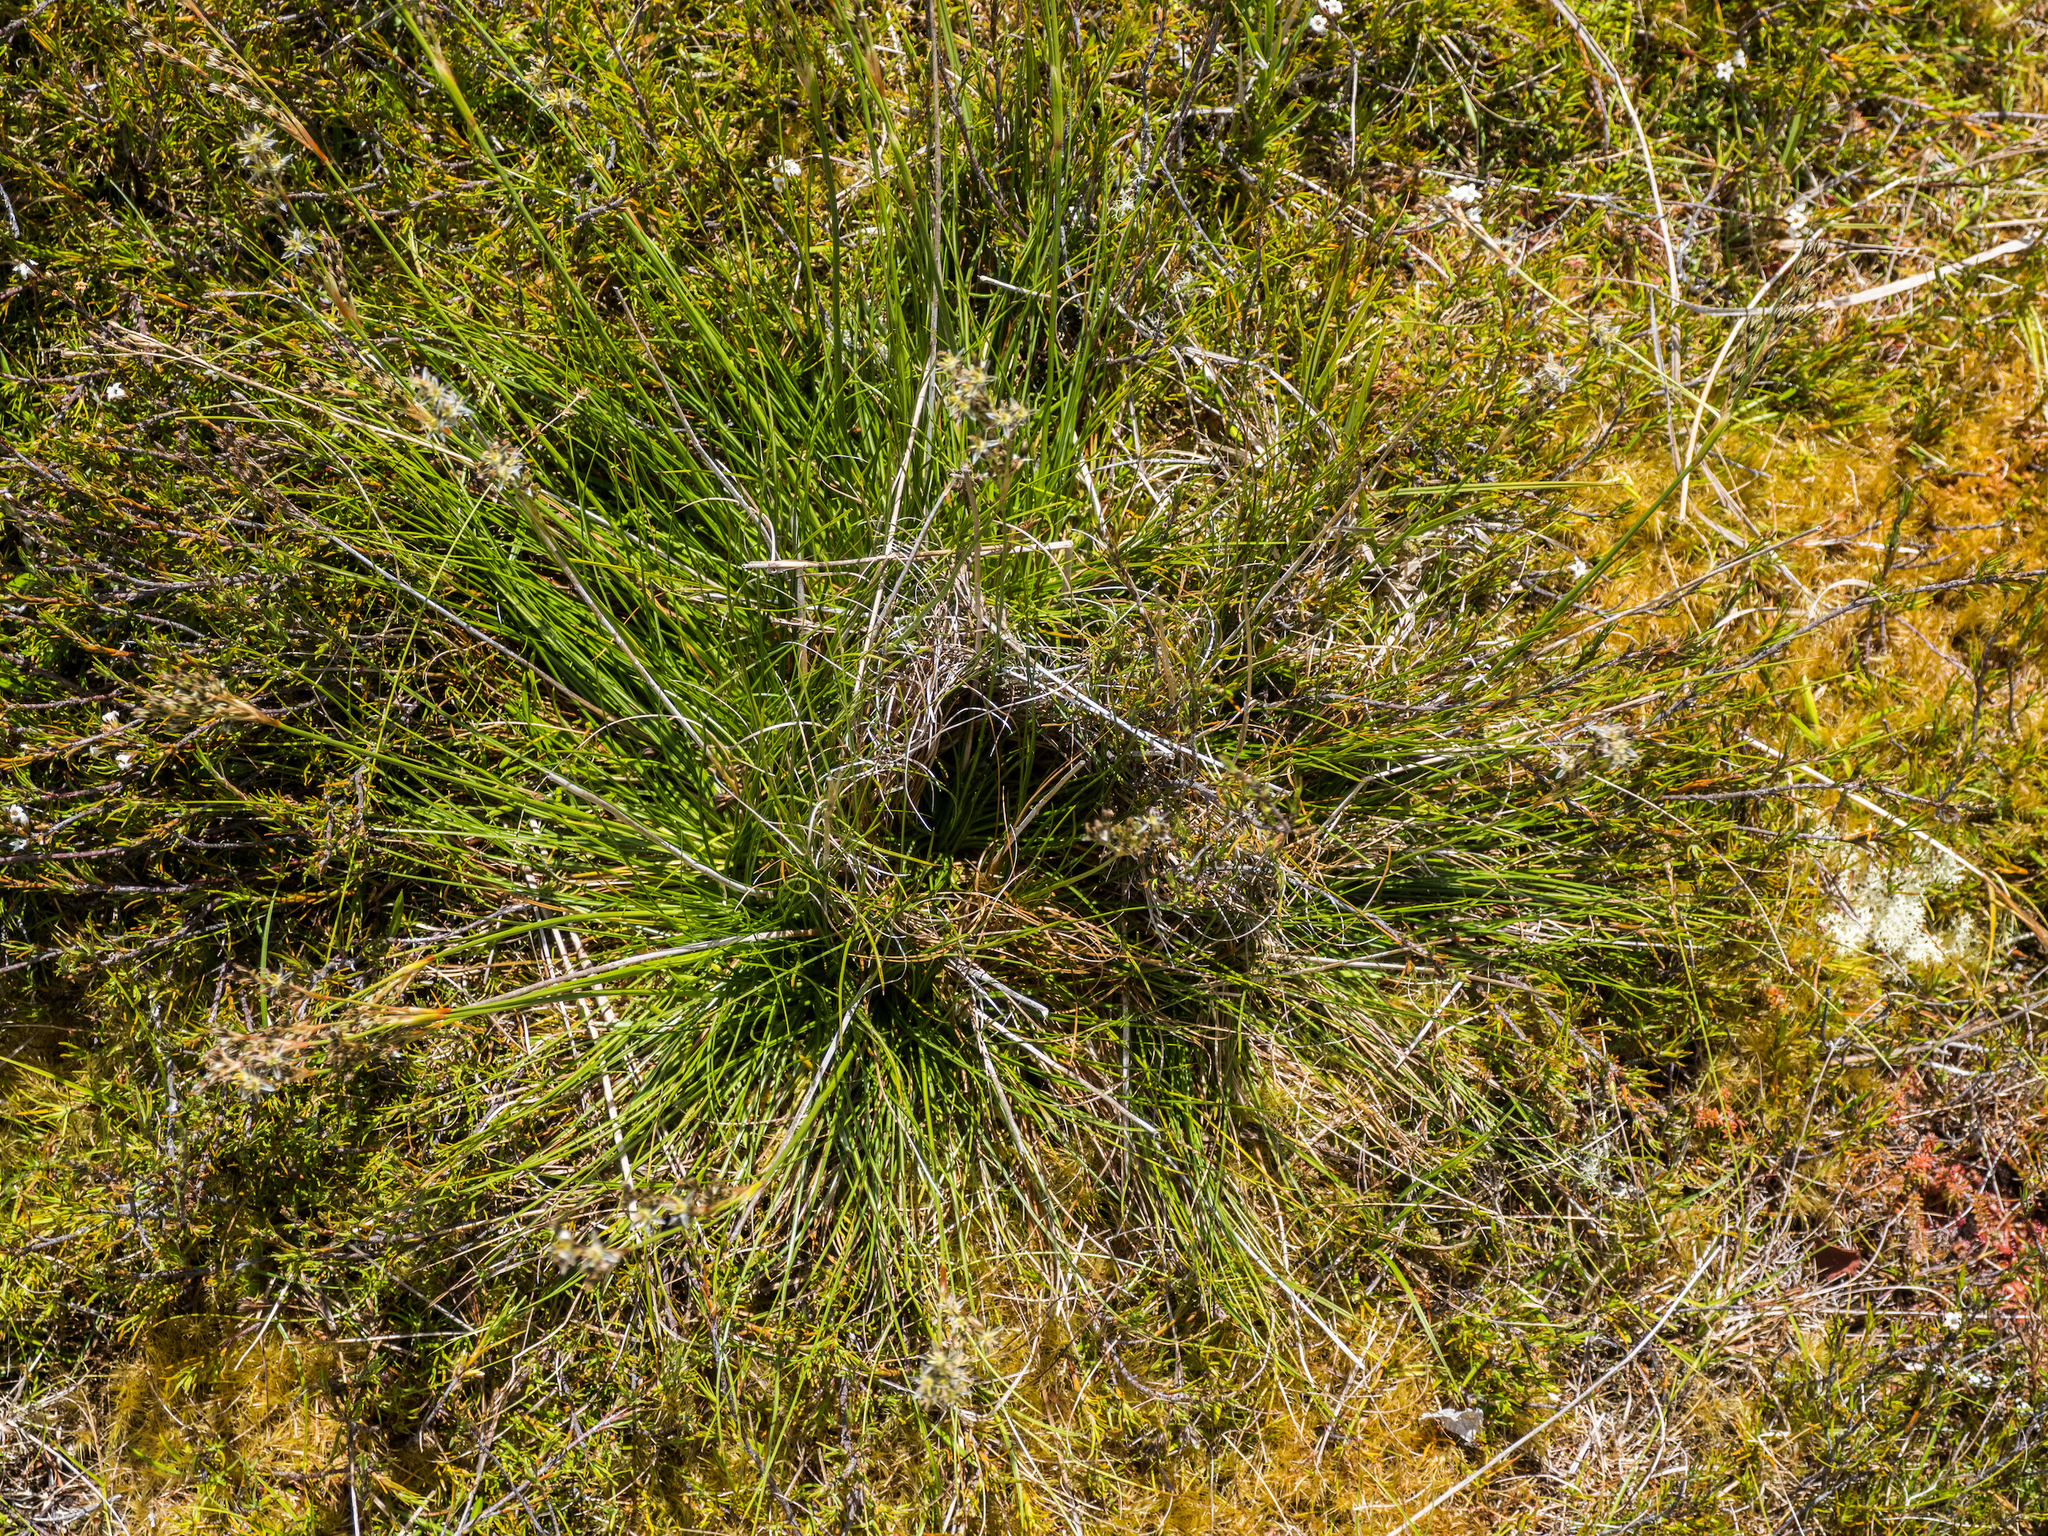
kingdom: Plantae
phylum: Tracheophyta
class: Liliopsida
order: Poales
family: Juncaceae
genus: Juncus
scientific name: Juncus squarrosus
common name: Heath rush
